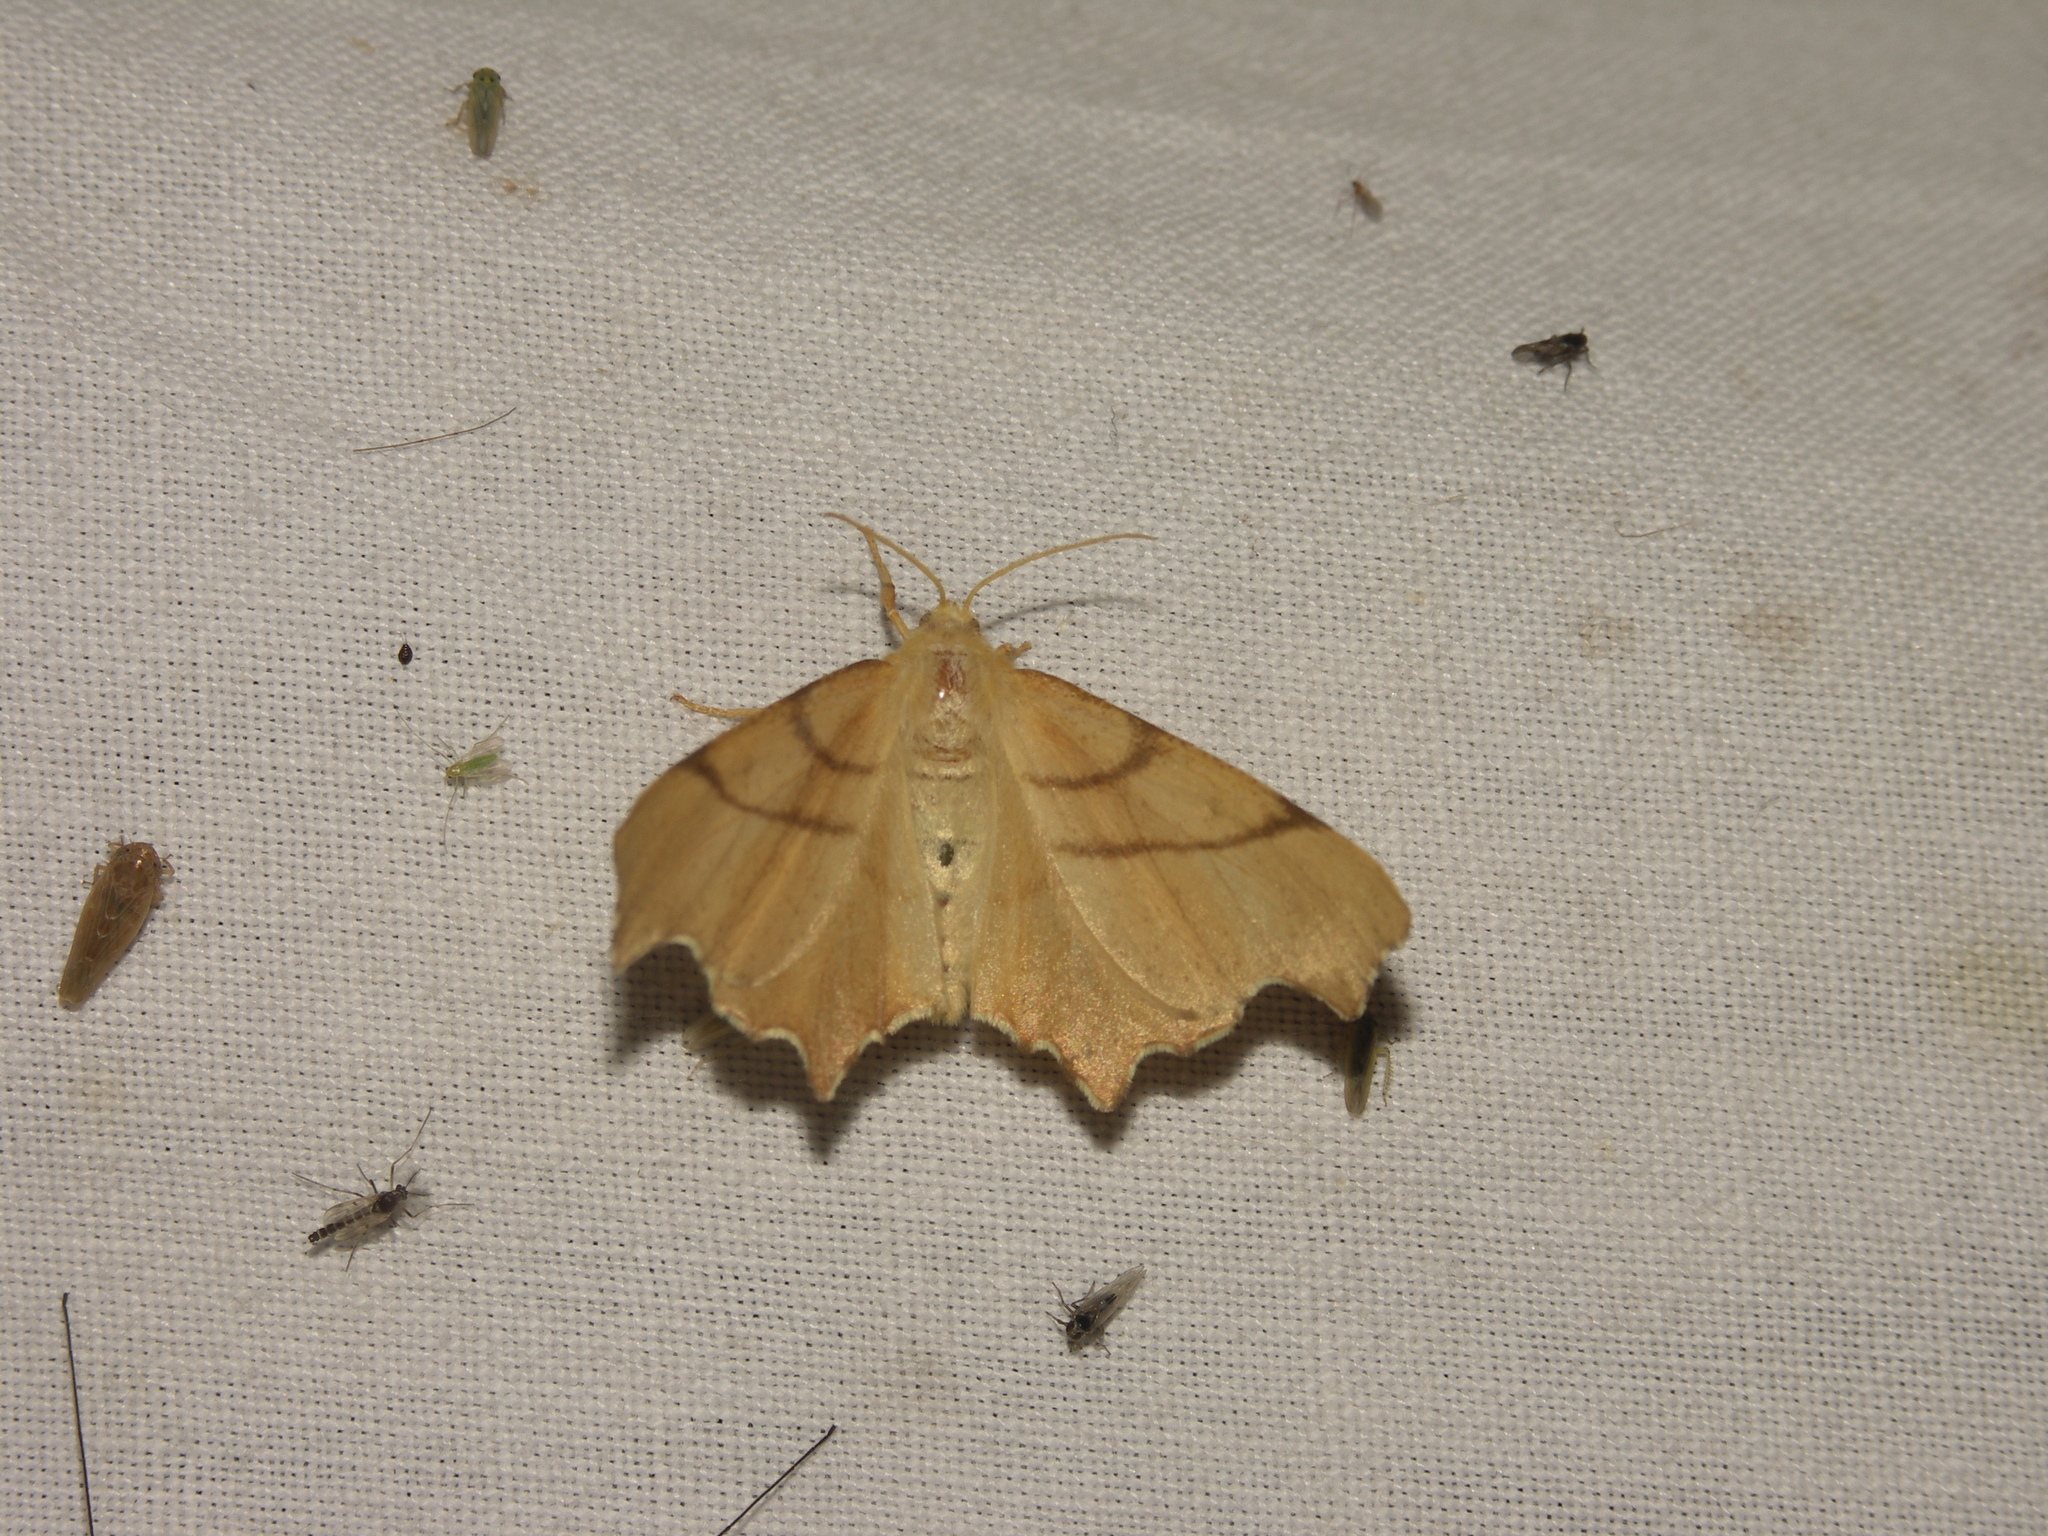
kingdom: Animalia
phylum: Arthropoda
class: Insecta
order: Lepidoptera
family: Geometridae
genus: Ennomos
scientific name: Ennomos erosaria
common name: September thorn
